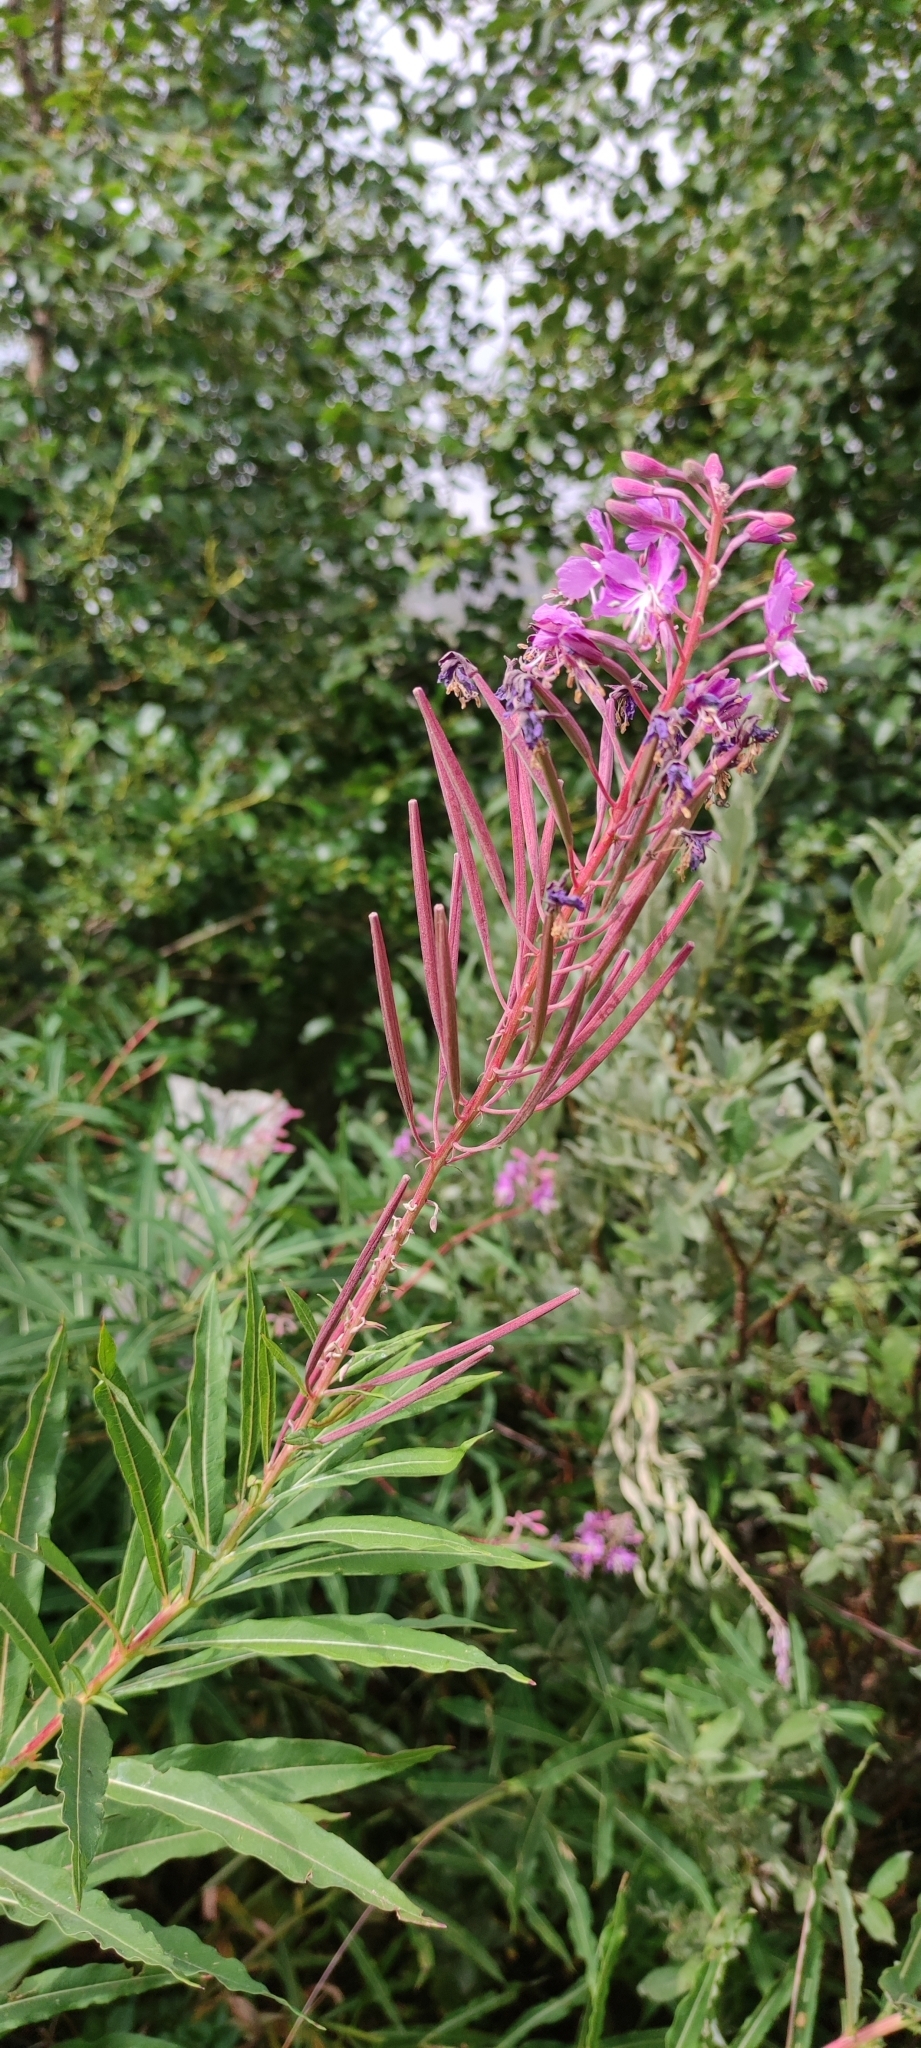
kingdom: Plantae
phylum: Tracheophyta
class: Magnoliopsida
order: Myrtales
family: Onagraceae
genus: Chamaenerion
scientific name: Chamaenerion angustifolium
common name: Fireweed
